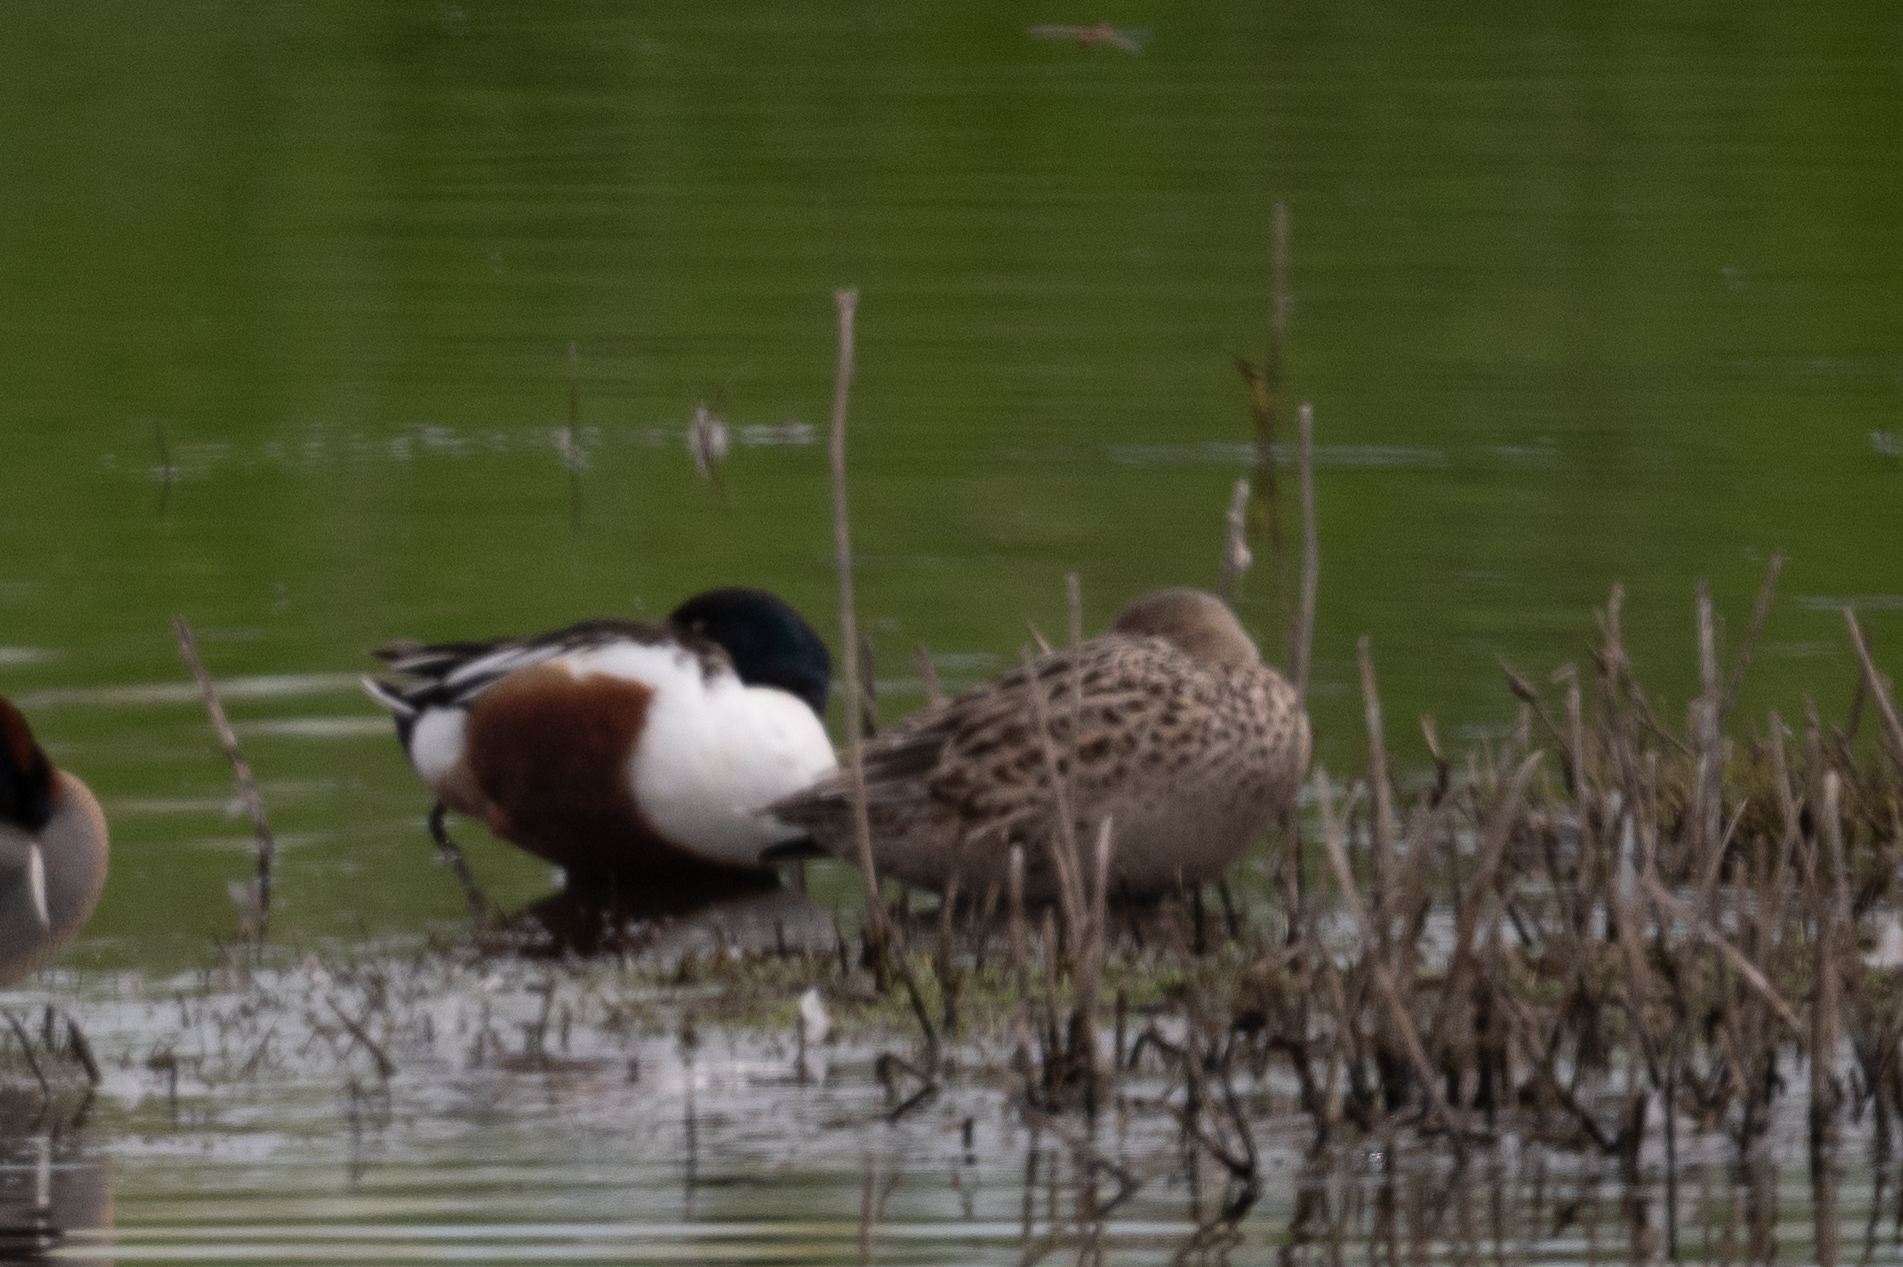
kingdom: Animalia
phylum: Chordata
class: Aves
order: Anseriformes
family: Anatidae
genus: Spatula
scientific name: Spatula clypeata
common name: Northern shoveler
